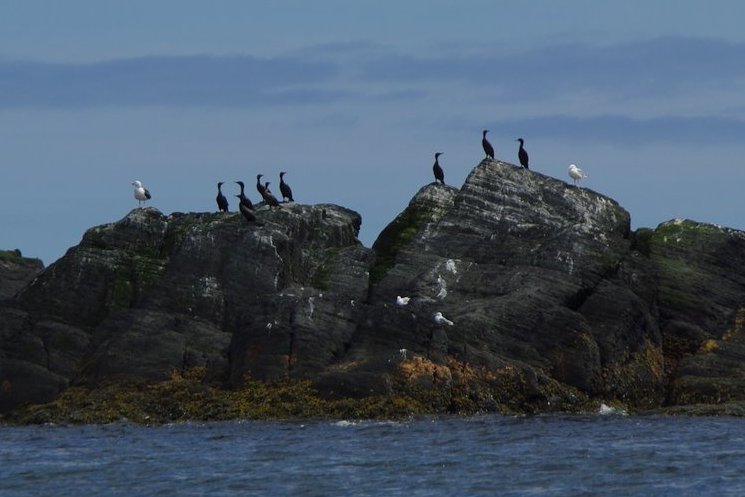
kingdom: Animalia
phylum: Chordata
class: Aves
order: Suliformes
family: Phalacrocoracidae
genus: Phalacrocorax
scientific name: Phalacrocorax auritus
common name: Double-crested cormorant
